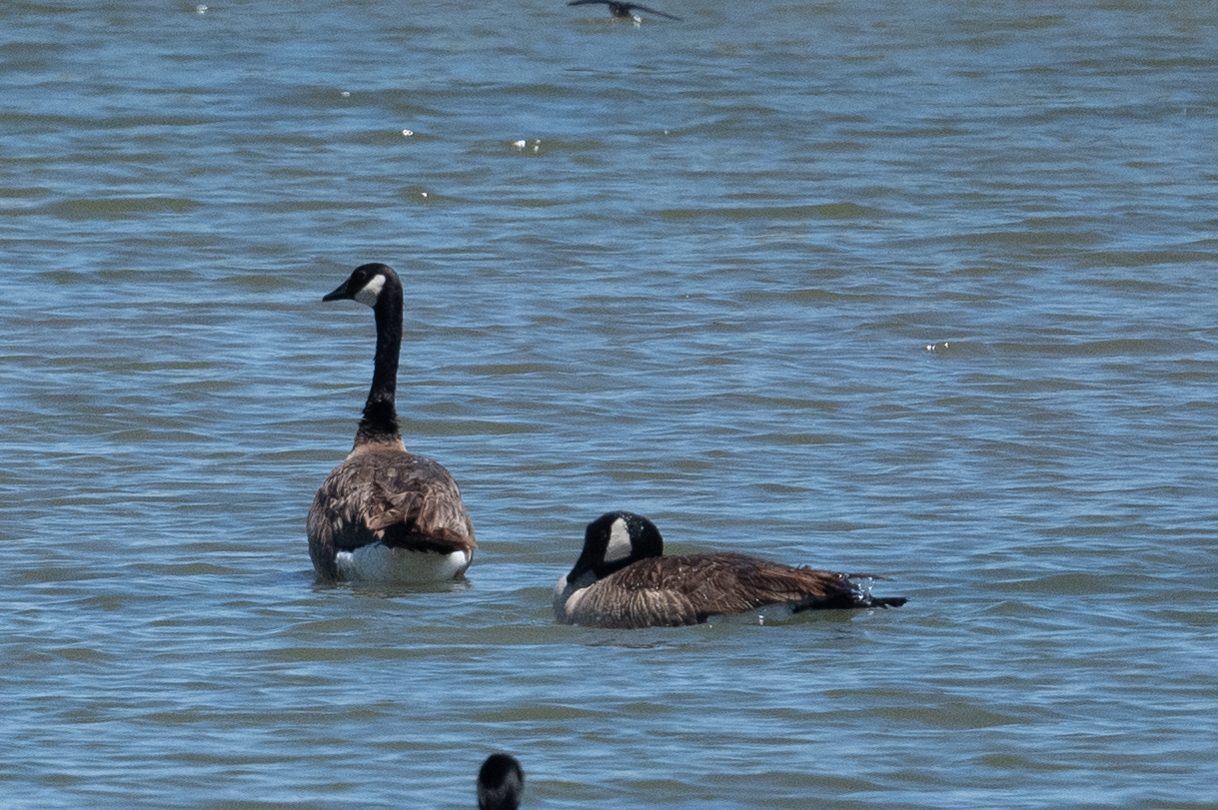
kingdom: Animalia
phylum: Chordata
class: Aves
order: Anseriformes
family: Anatidae
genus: Branta
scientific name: Branta canadensis
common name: Canada goose
